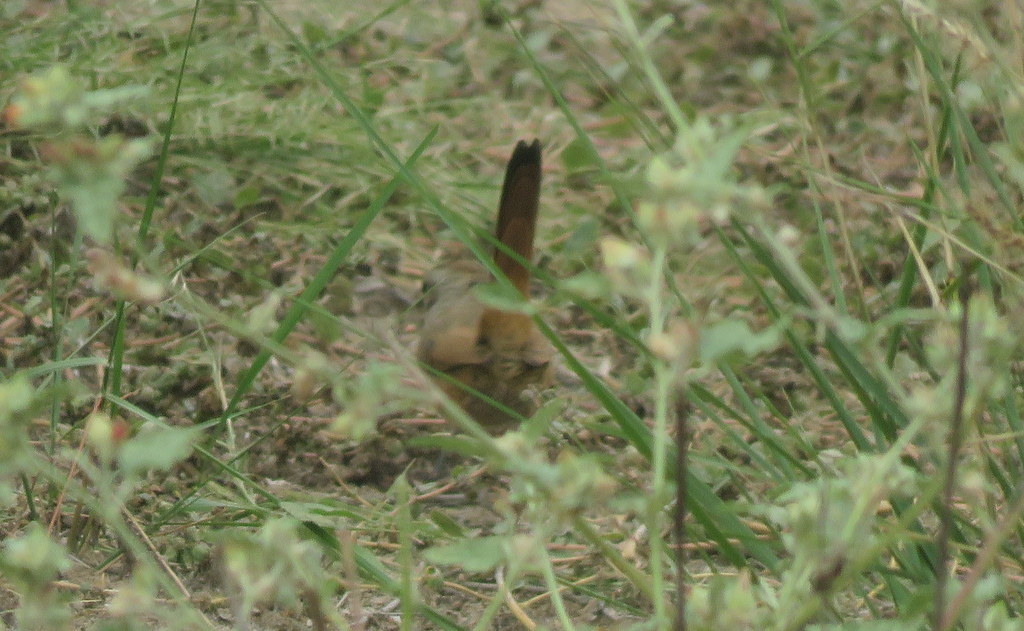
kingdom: Animalia
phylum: Chordata
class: Aves
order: Passeriformes
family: Furnariidae
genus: Asthenes
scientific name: Asthenes baeri
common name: Short-billed canastero
